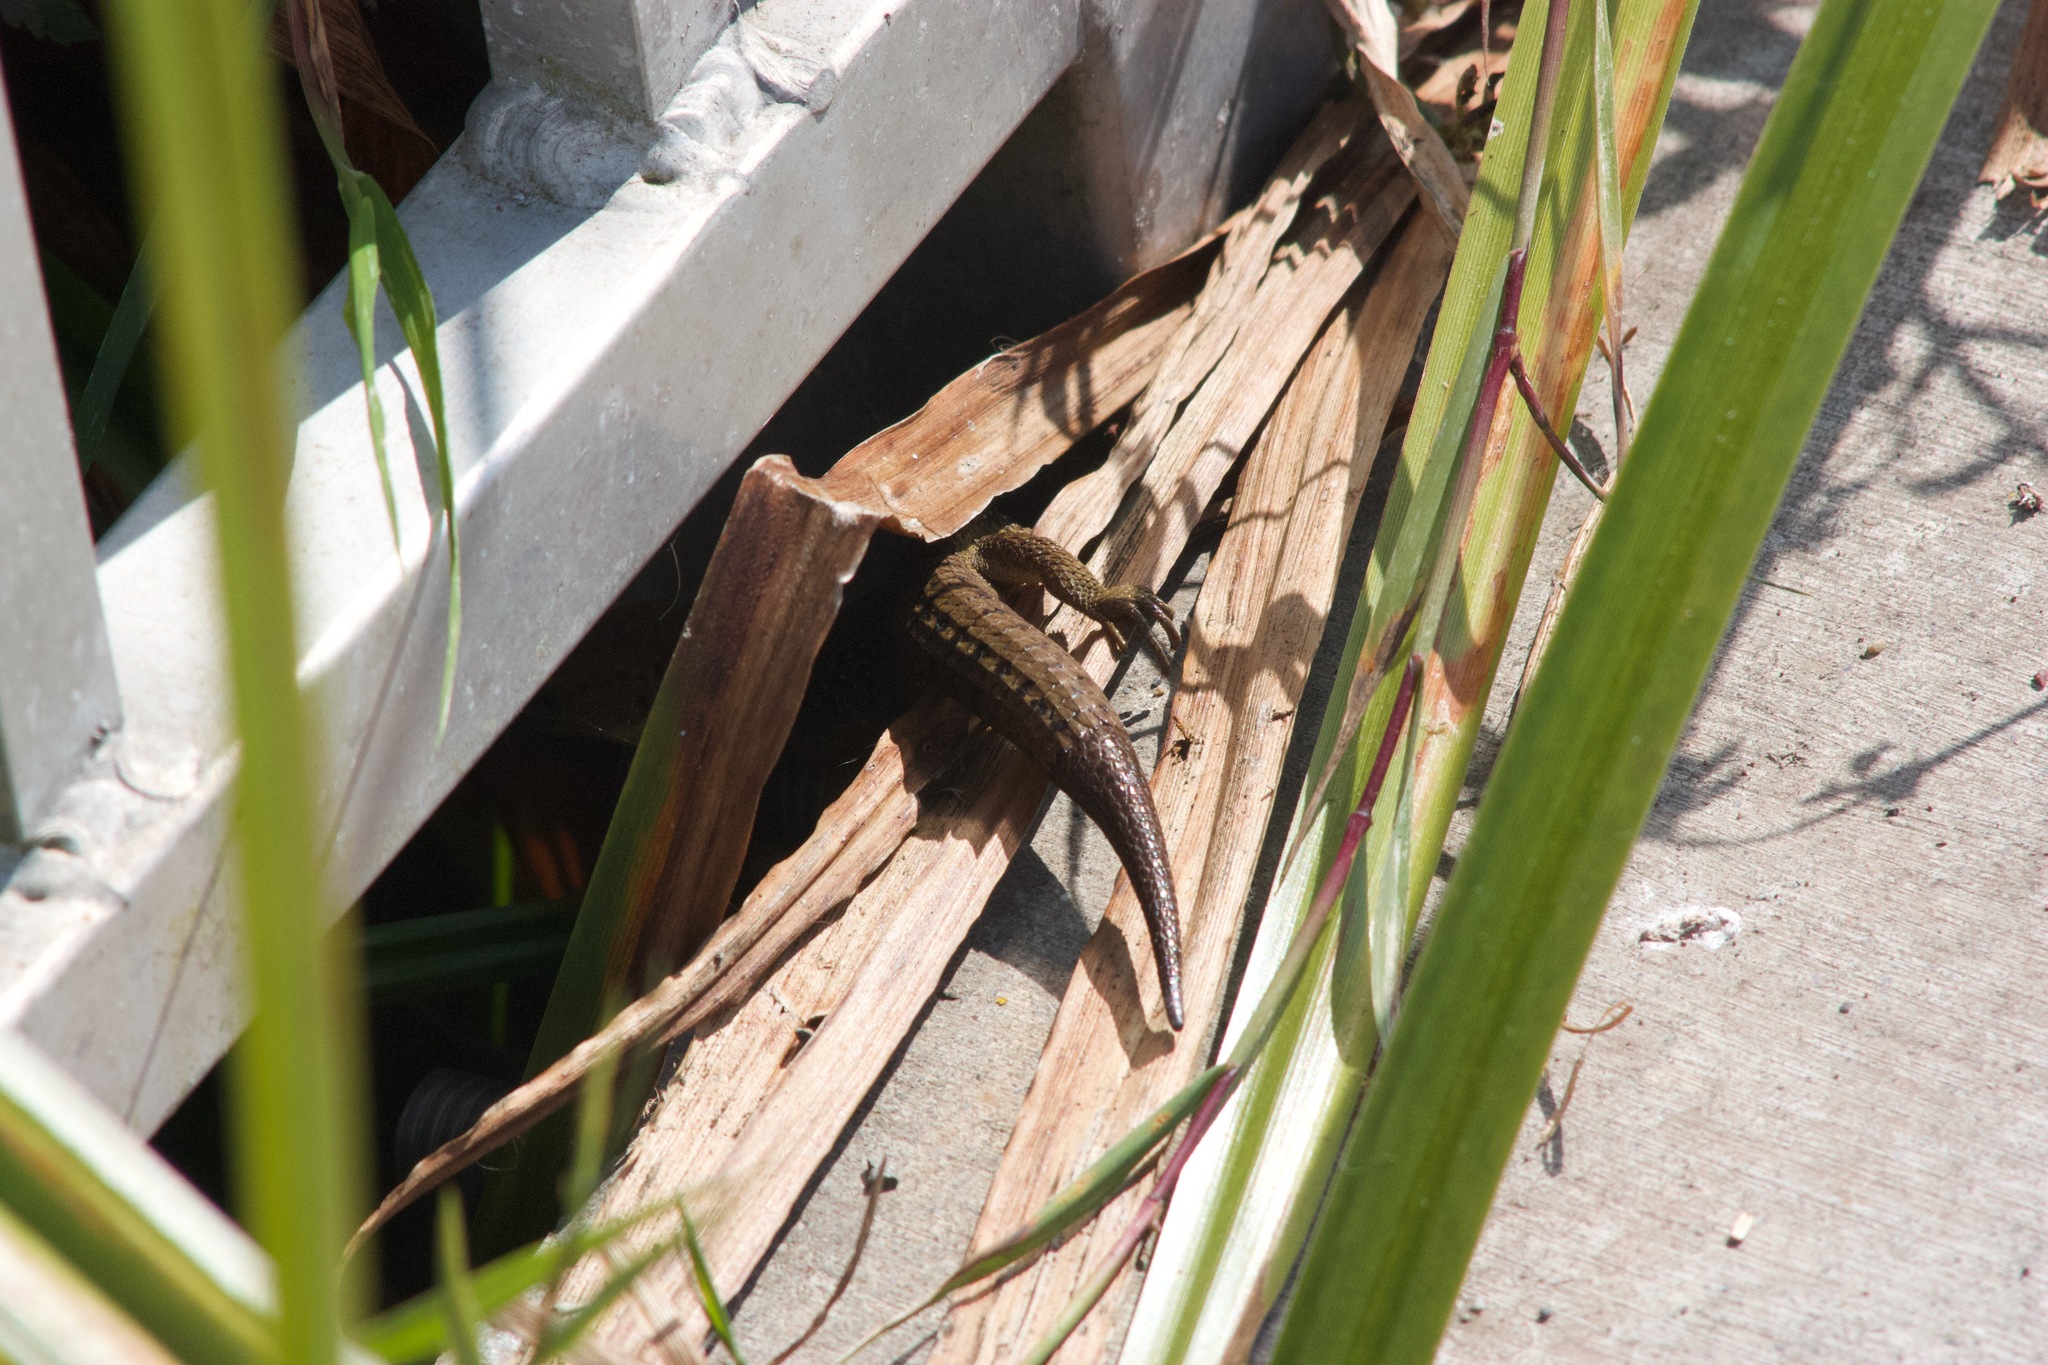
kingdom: Animalia
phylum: Chordata
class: Squamata
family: Anguidae
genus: Elgaria
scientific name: Elgaria coerulea
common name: Northern alligator lizard
